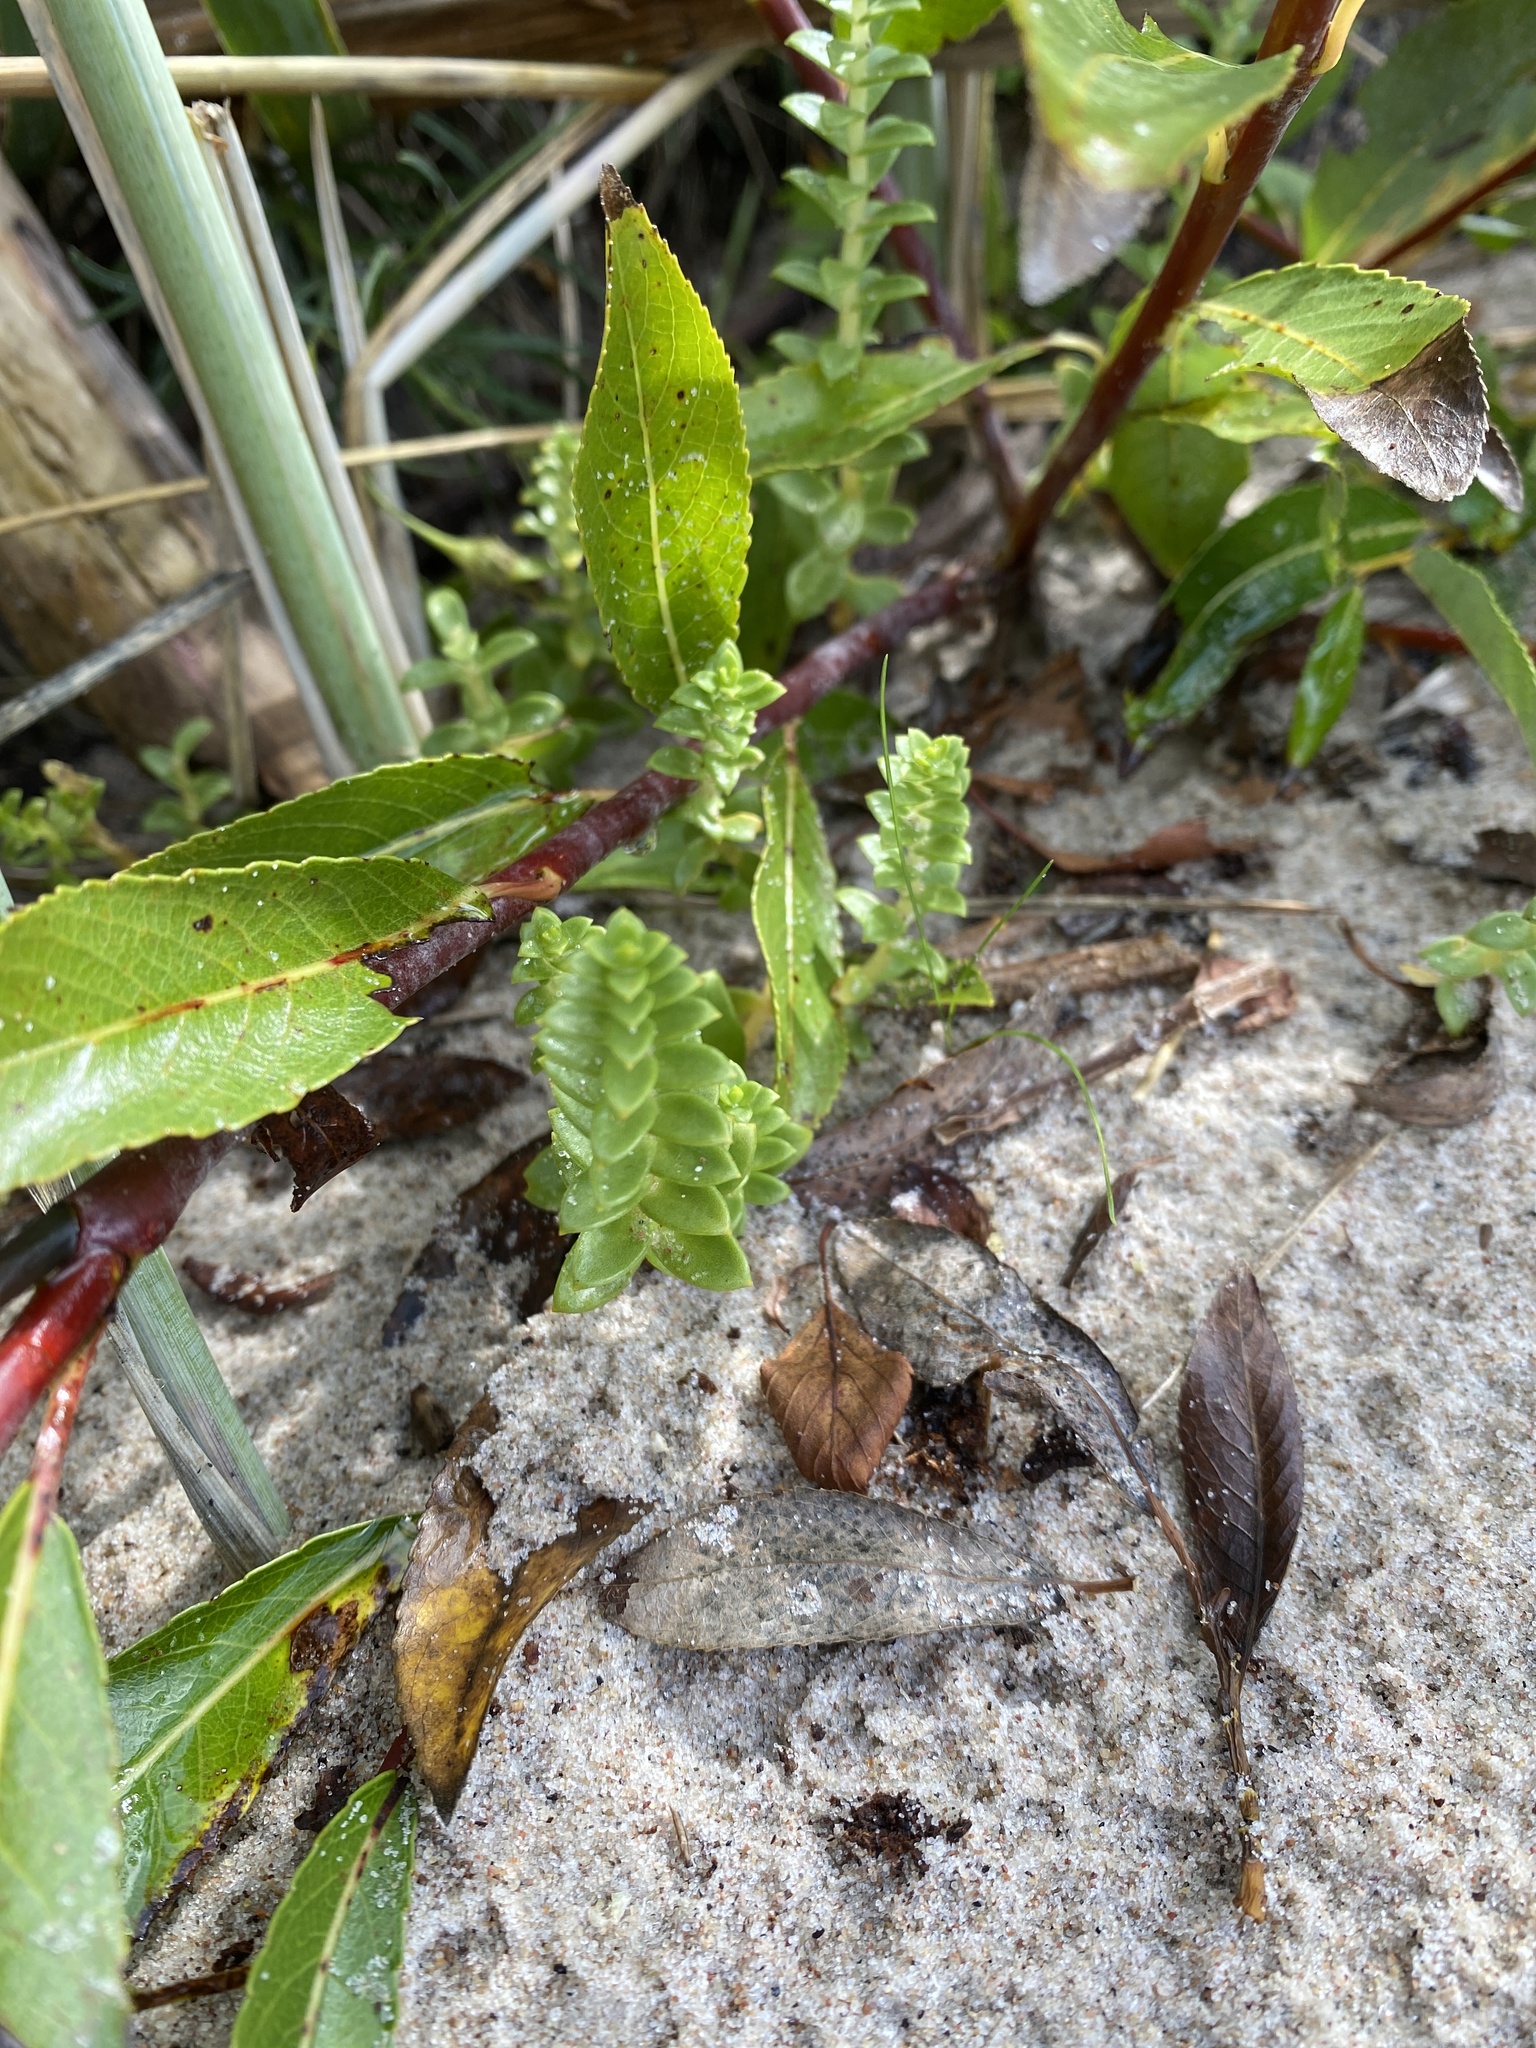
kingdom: Plantae
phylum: Tracheophyta
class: Magnoliopsida
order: Caryophyllales
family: Caryophyllaceae
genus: Honckenya
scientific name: Honckenya peploides
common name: Sea sandwort
